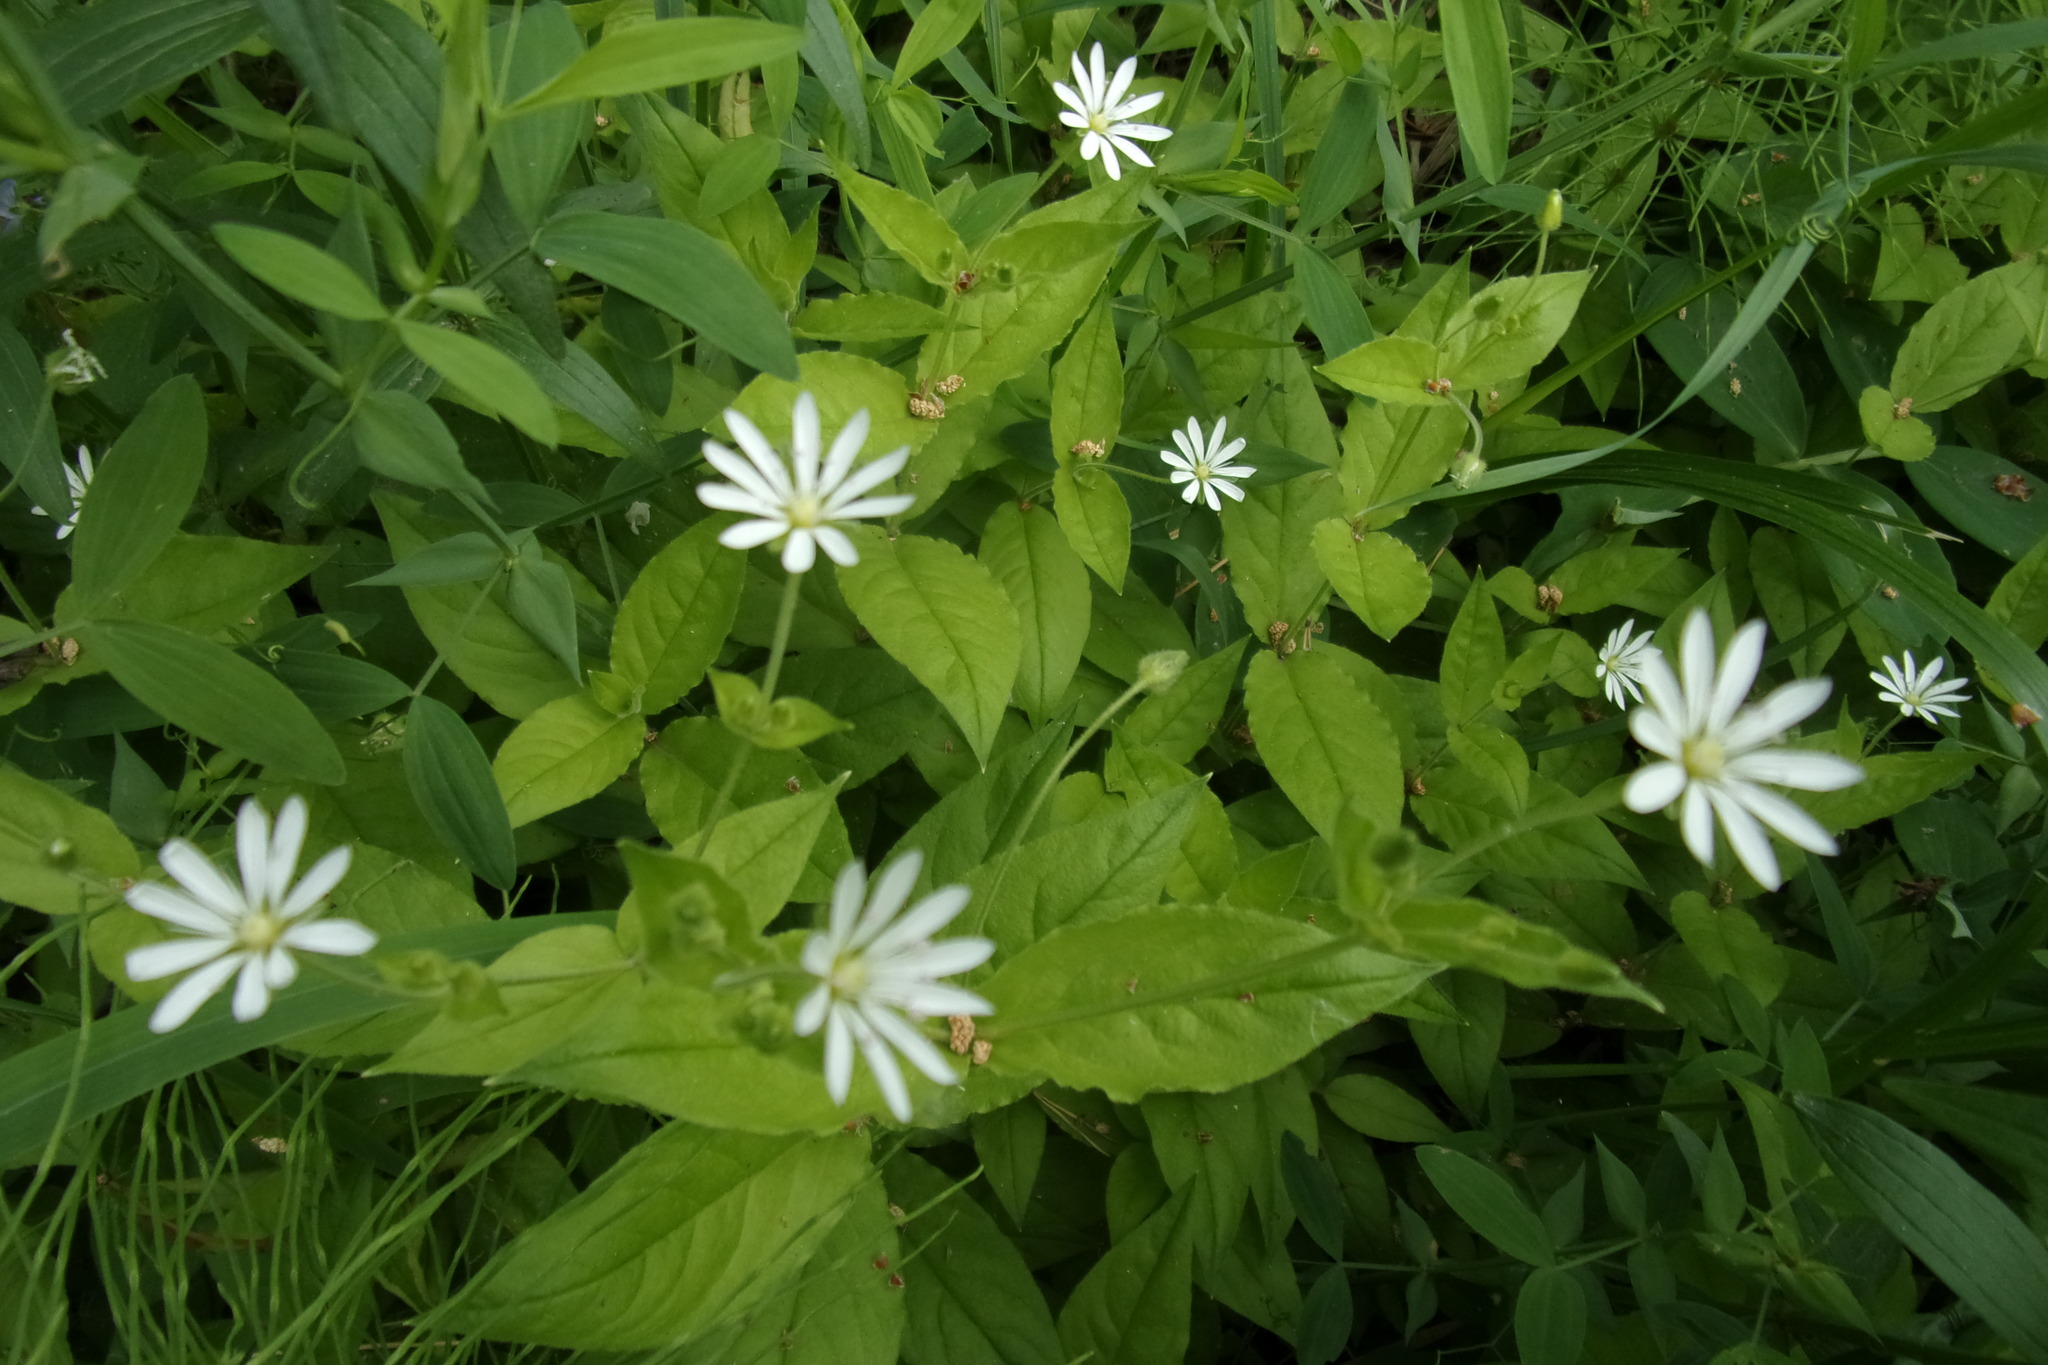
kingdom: Plantae
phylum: Tracheophyta
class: Magnoliopsida
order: Caryophyllales
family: Caryophyllaceae
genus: Stellaria
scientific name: Stellaria bungeana
